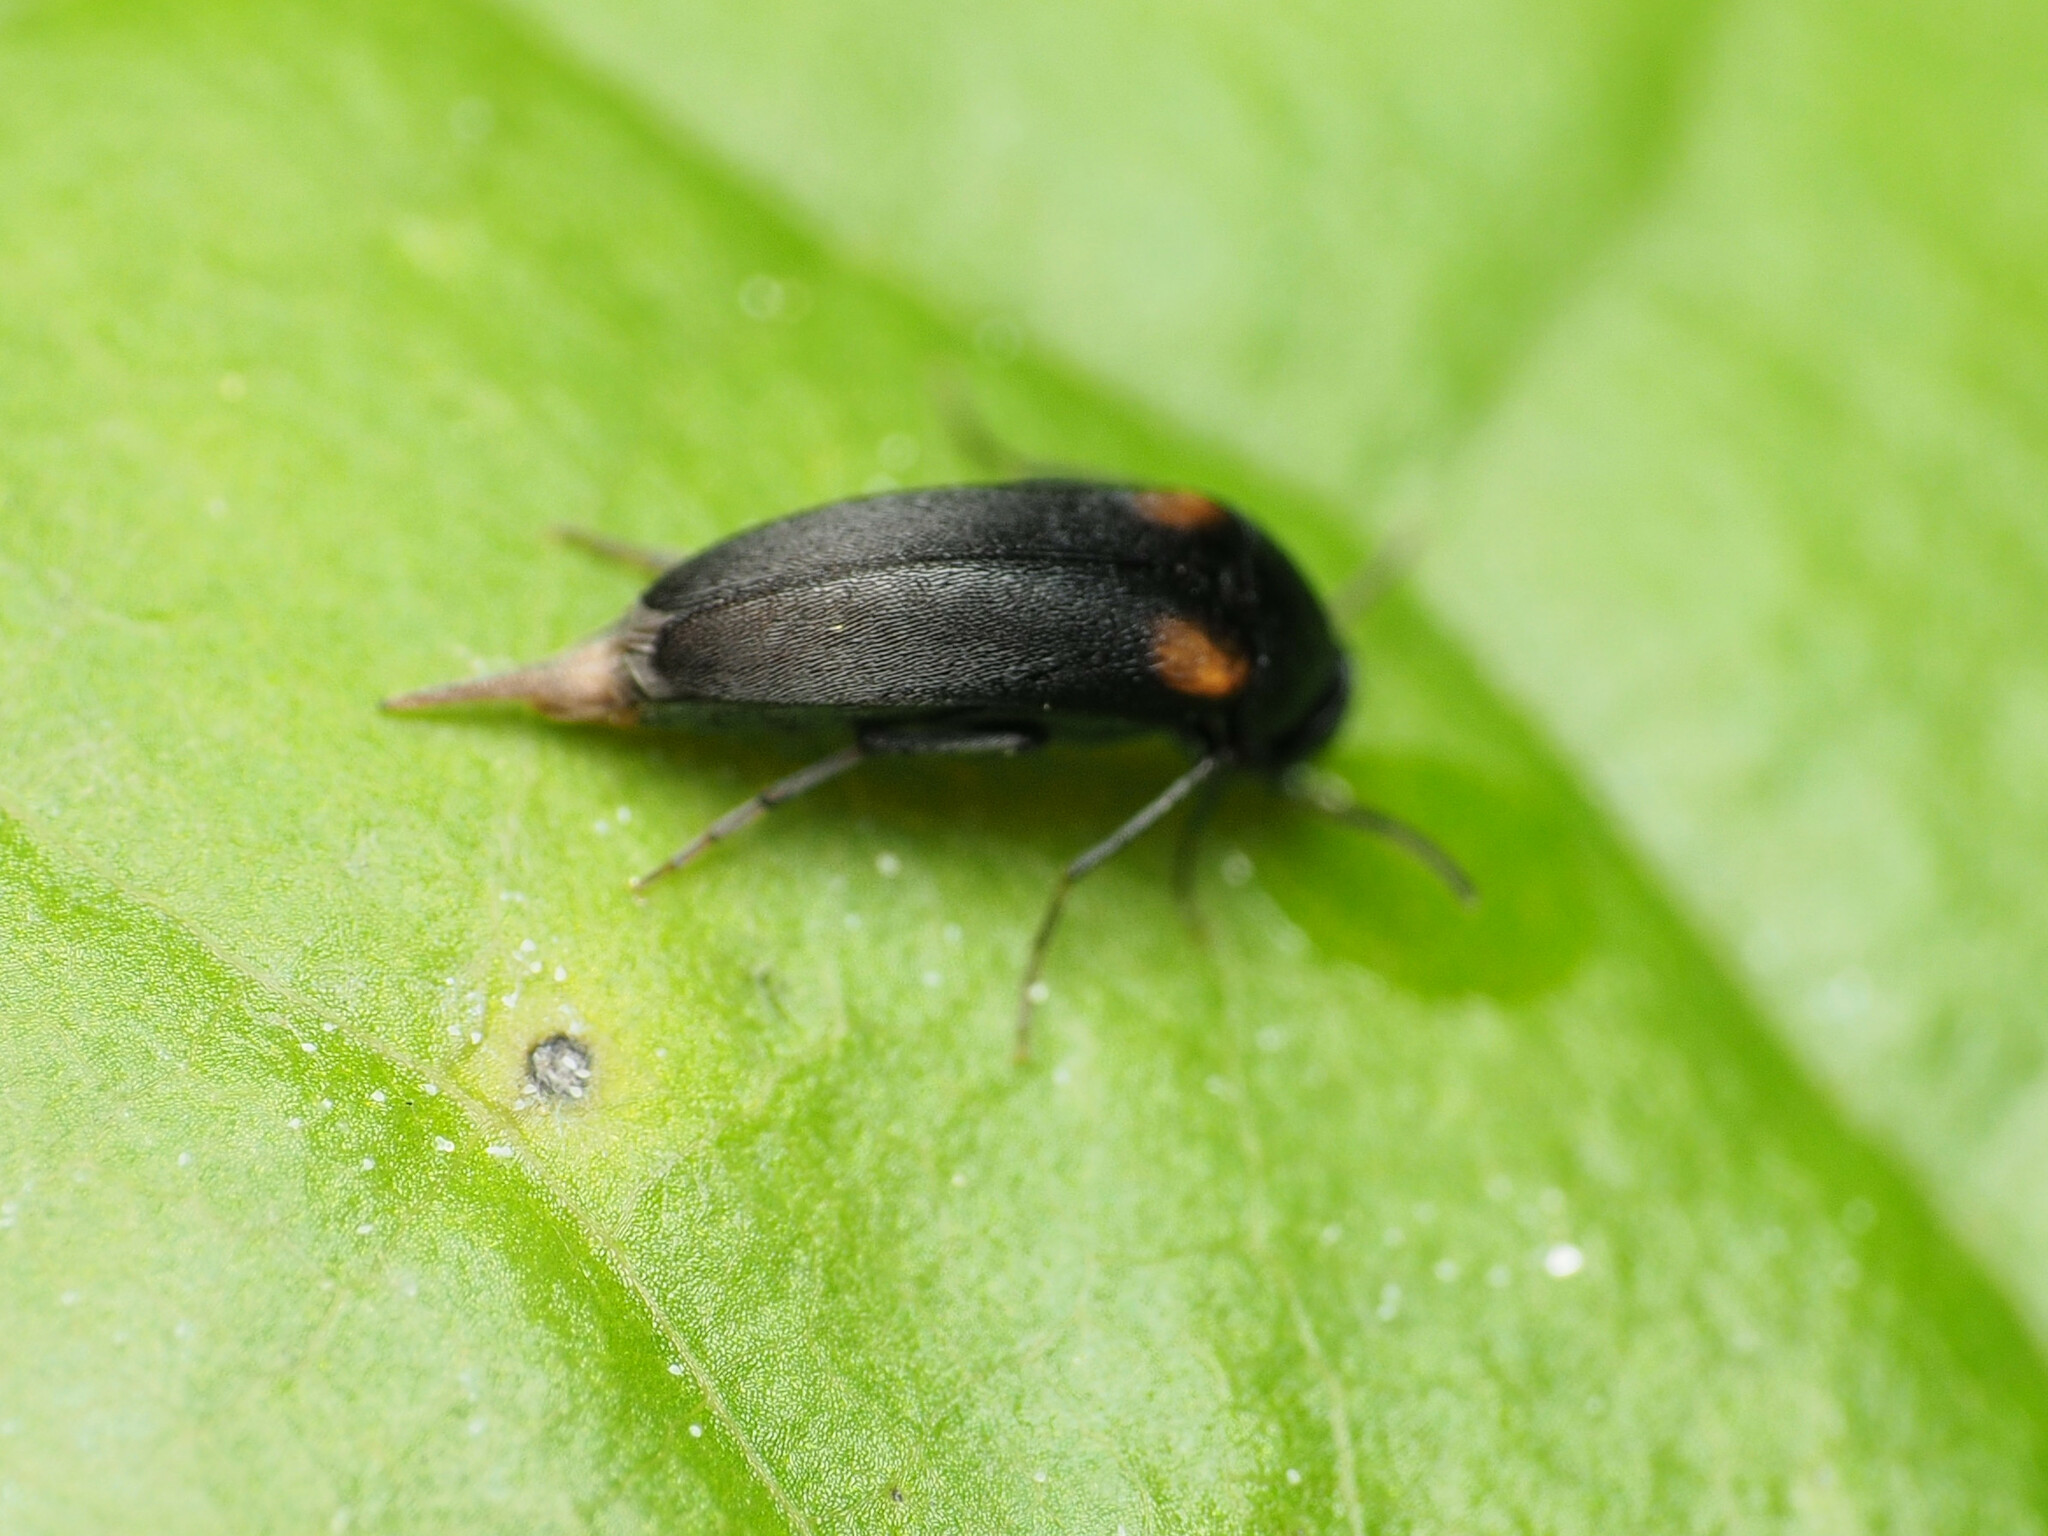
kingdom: Animalia
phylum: Arthropoda
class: Insecta
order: Coleoptera
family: Mordellidae
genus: Mordellochroa
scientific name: Mordellochroa scapularis
